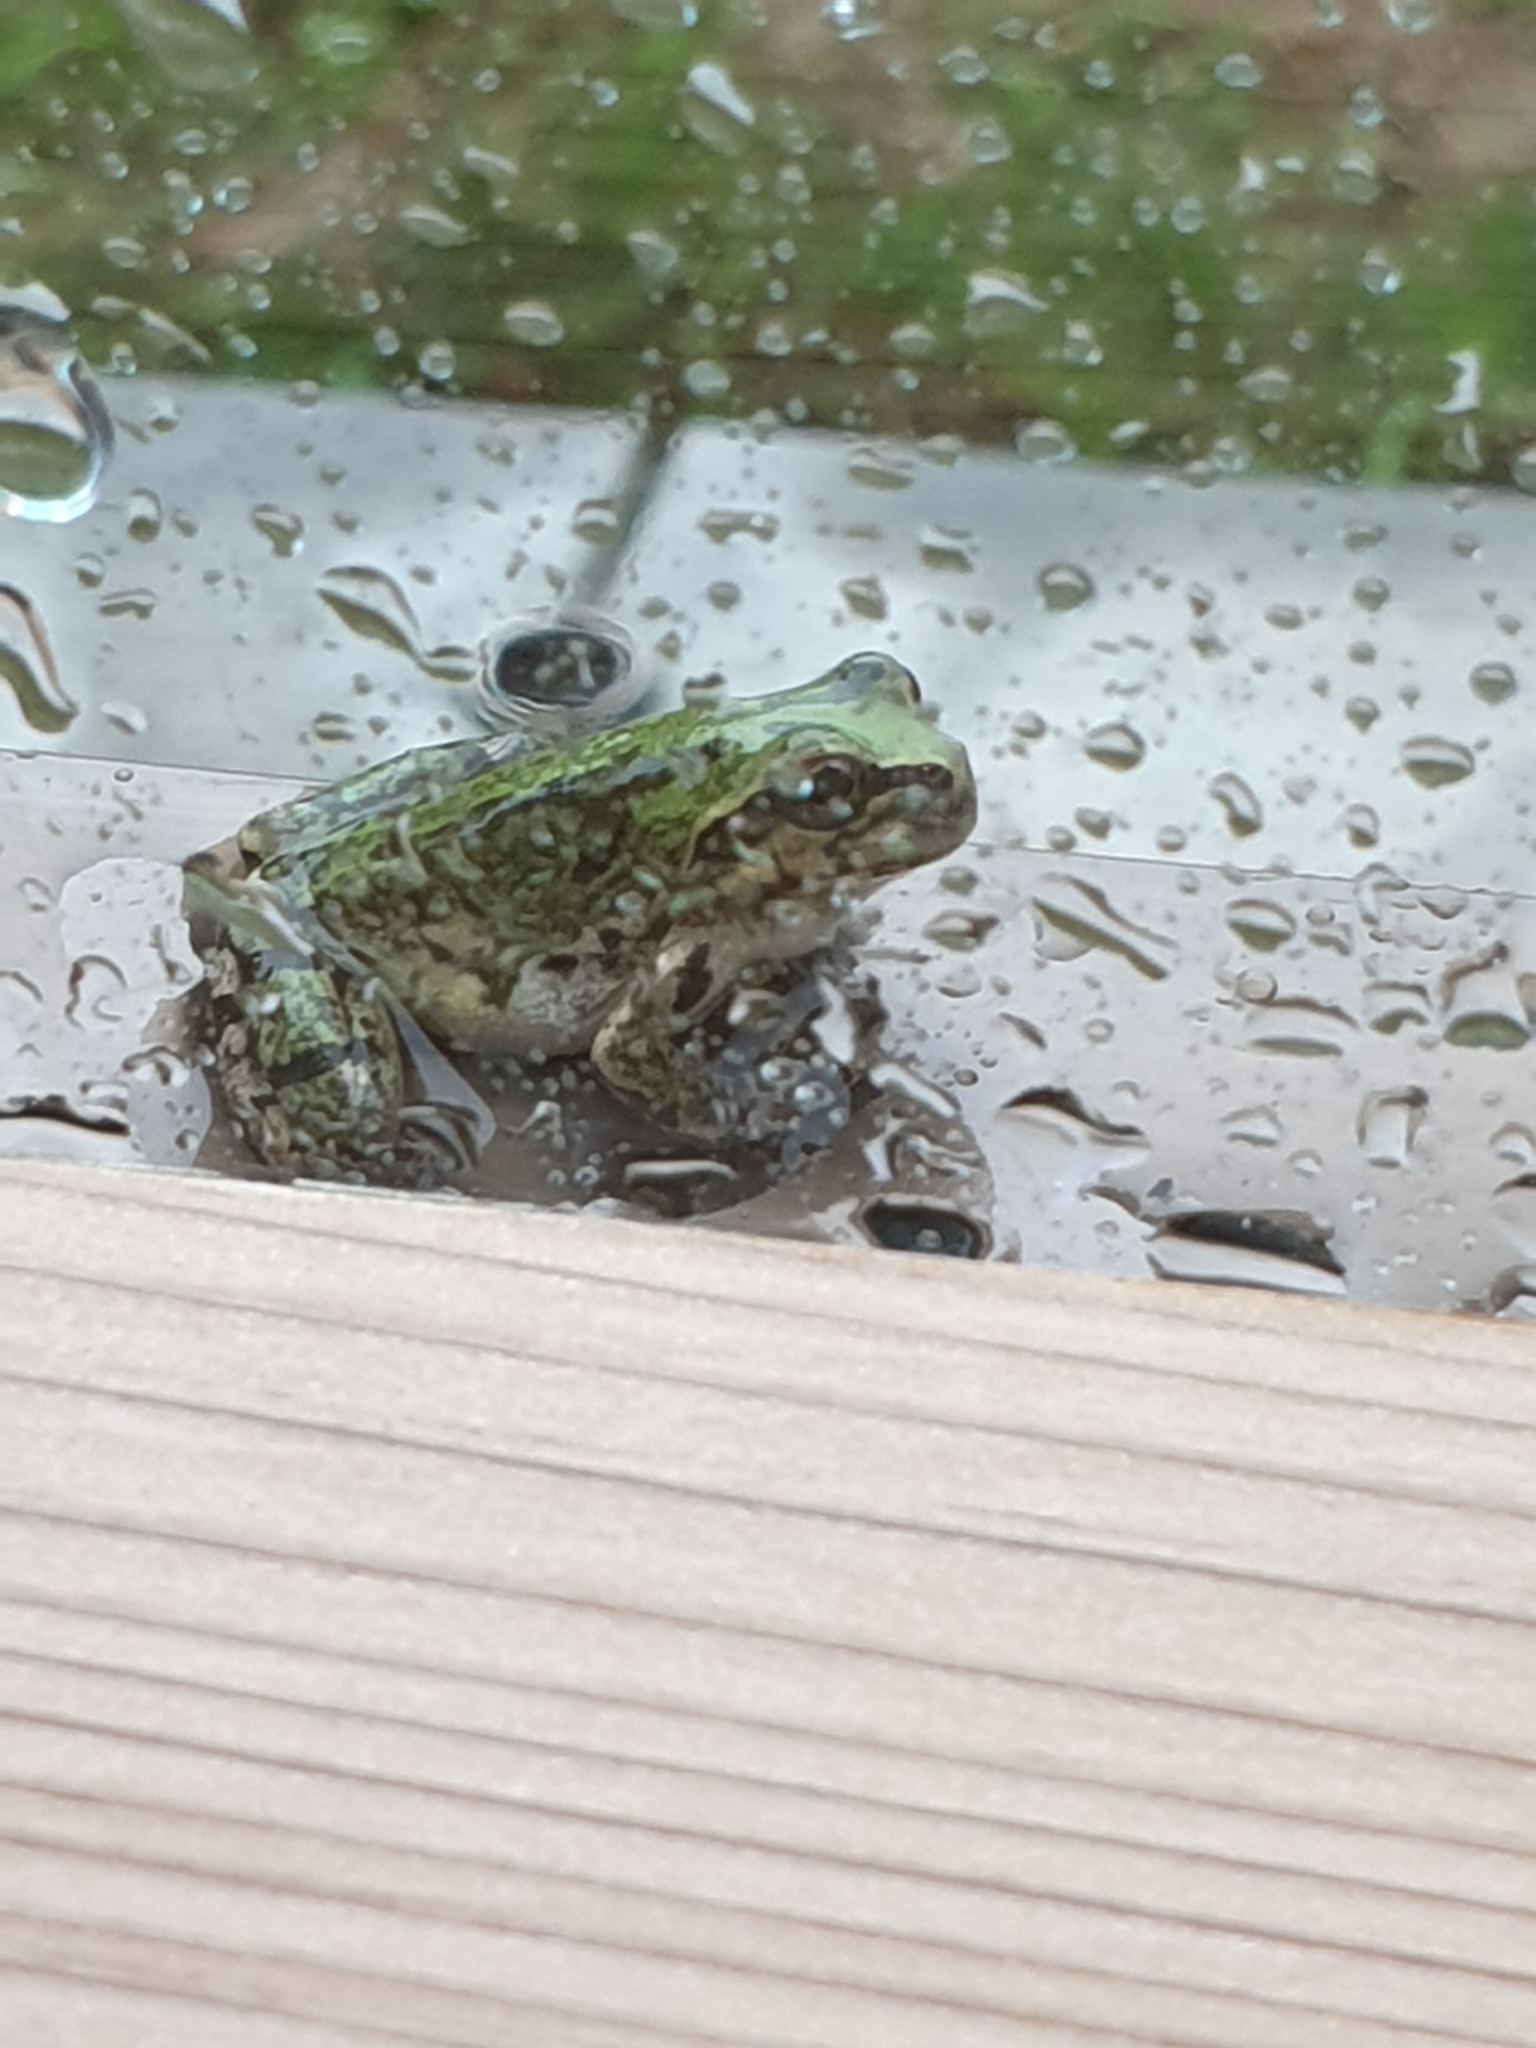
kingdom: Animalia
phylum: Chordata
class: Amphibia
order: Anura
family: Hylidae
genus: Dryophytes
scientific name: Dryophytes japonicus
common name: Japanese treefrog
